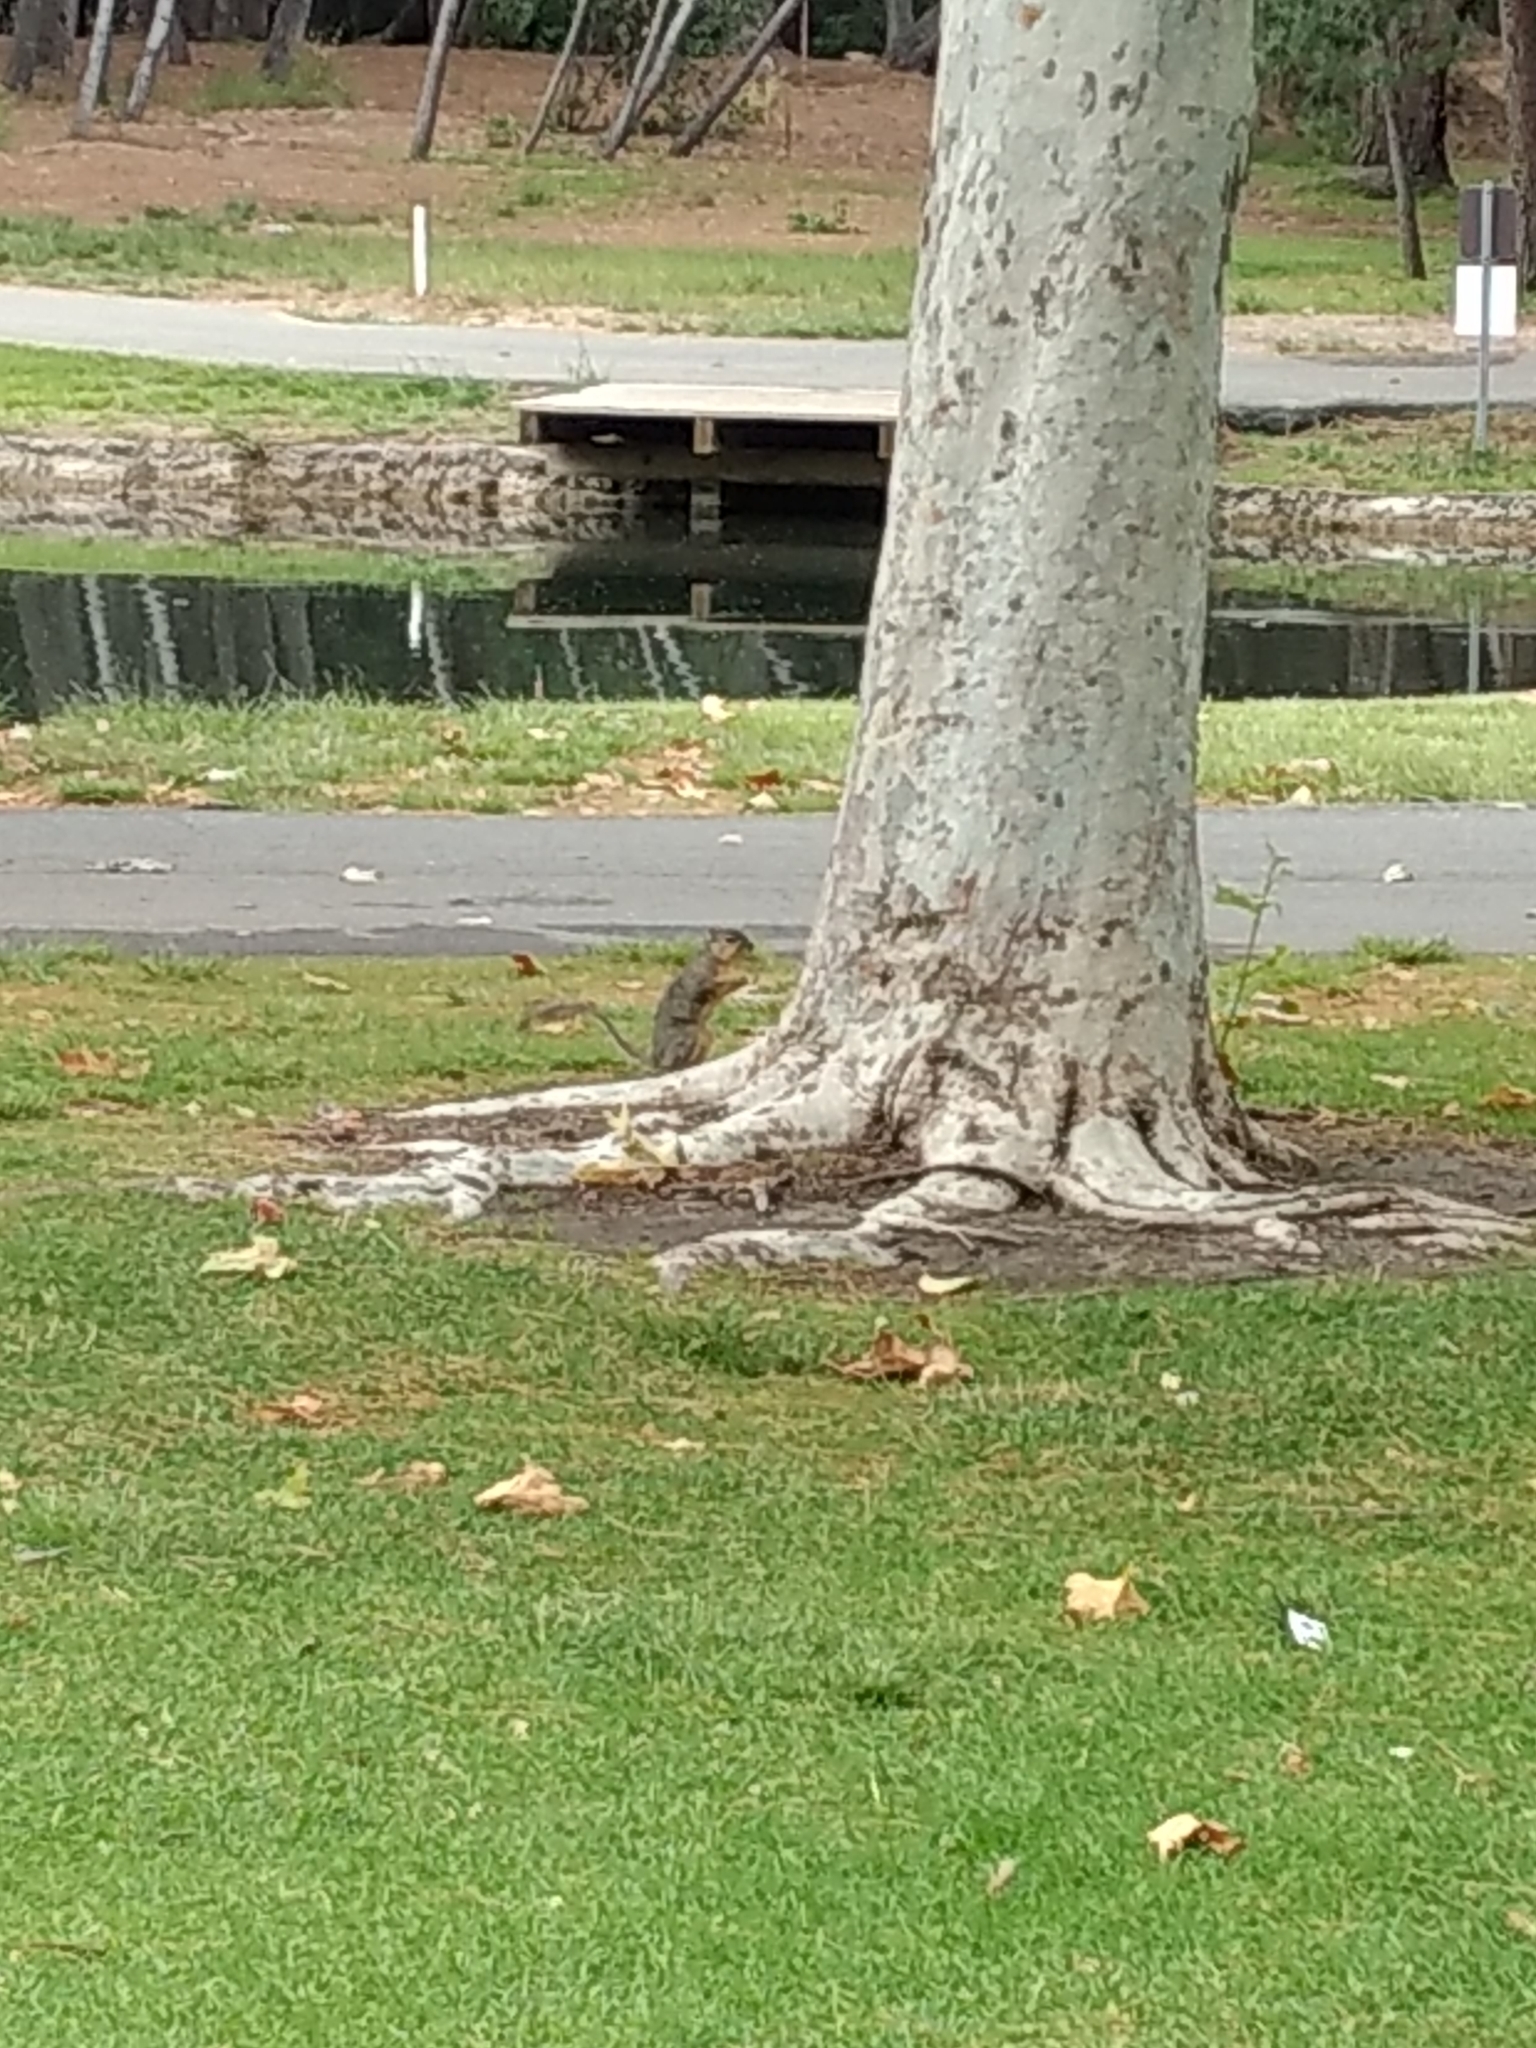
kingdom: Animalia
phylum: Chordata
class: Mammalia
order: Rodentia
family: Sciuridae
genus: Sciurus
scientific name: Sciurus niger
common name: Fox squirrel
